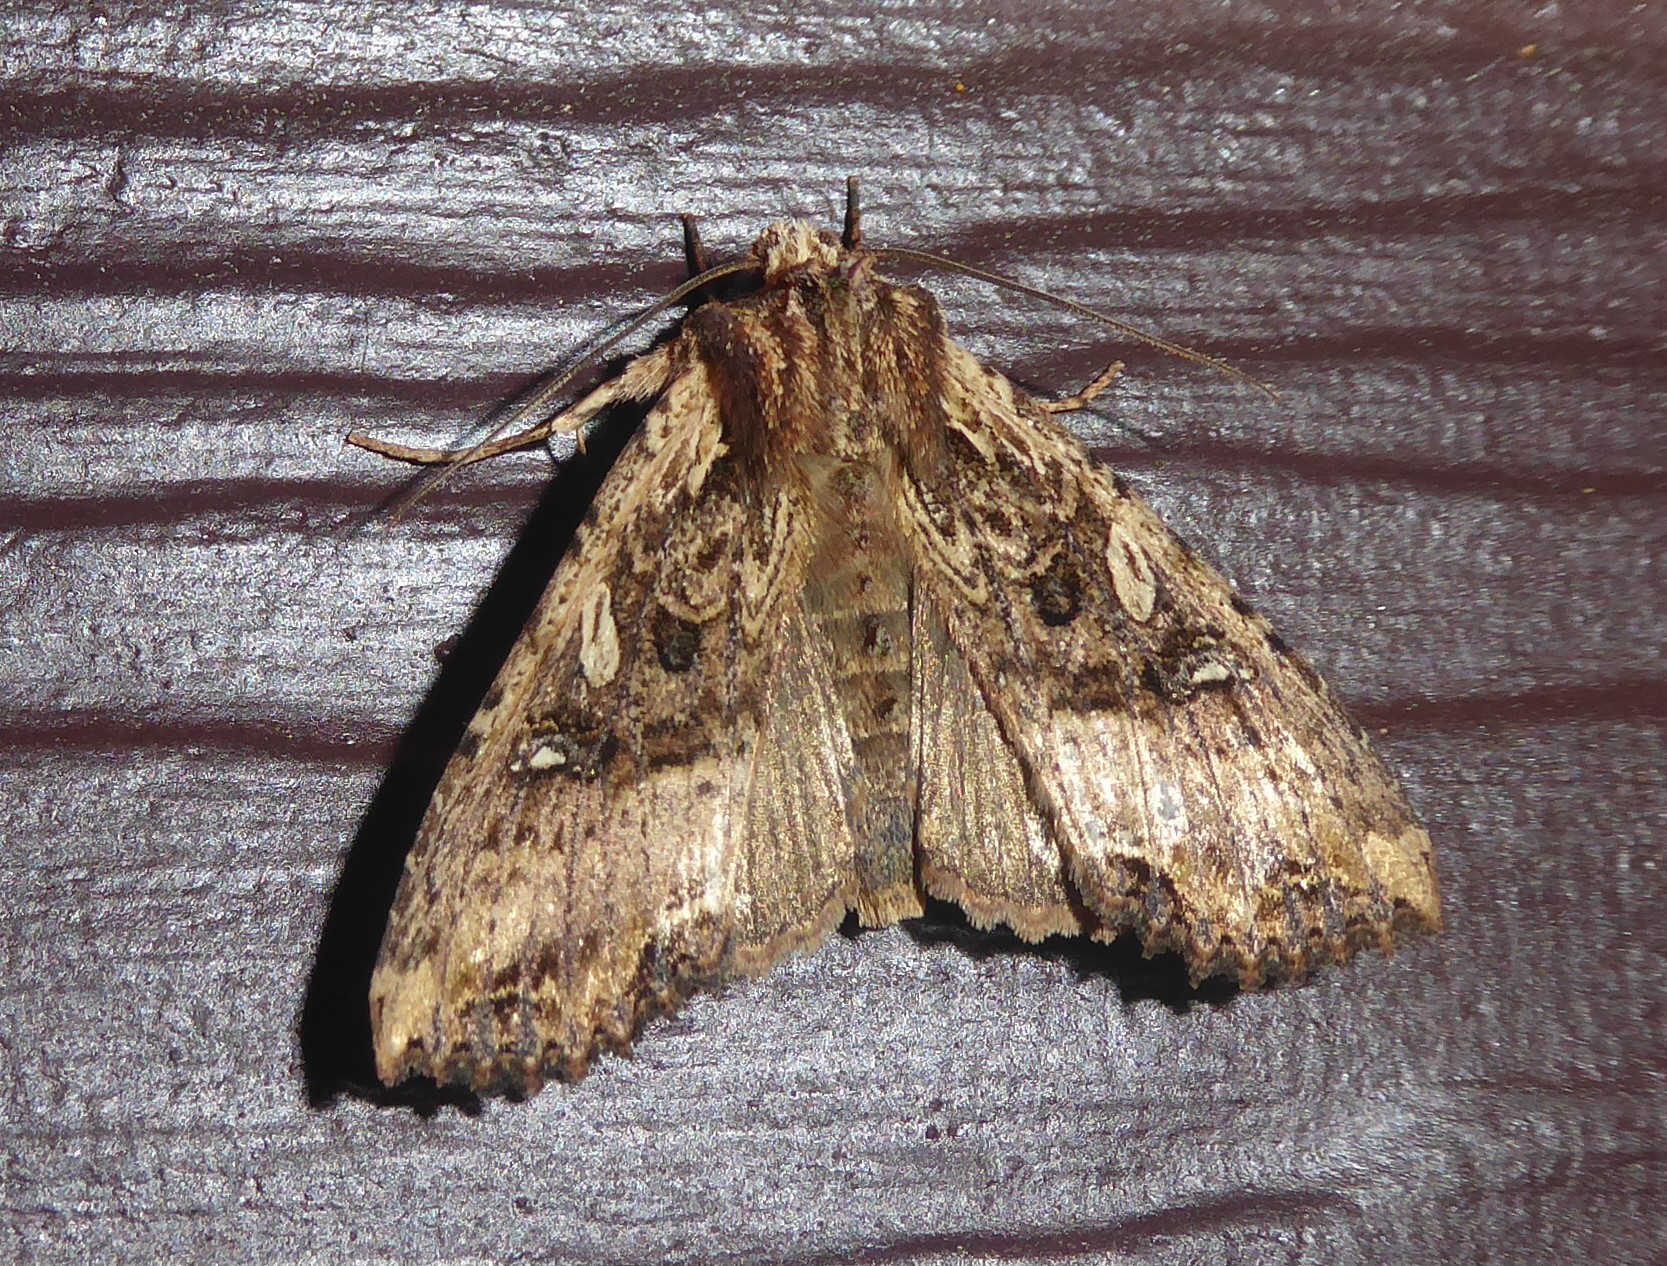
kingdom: Animalia
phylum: Arthropoda
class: Insecta
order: Lepidoptera
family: Noctuidae
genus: Meterana
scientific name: Meterana stipata
